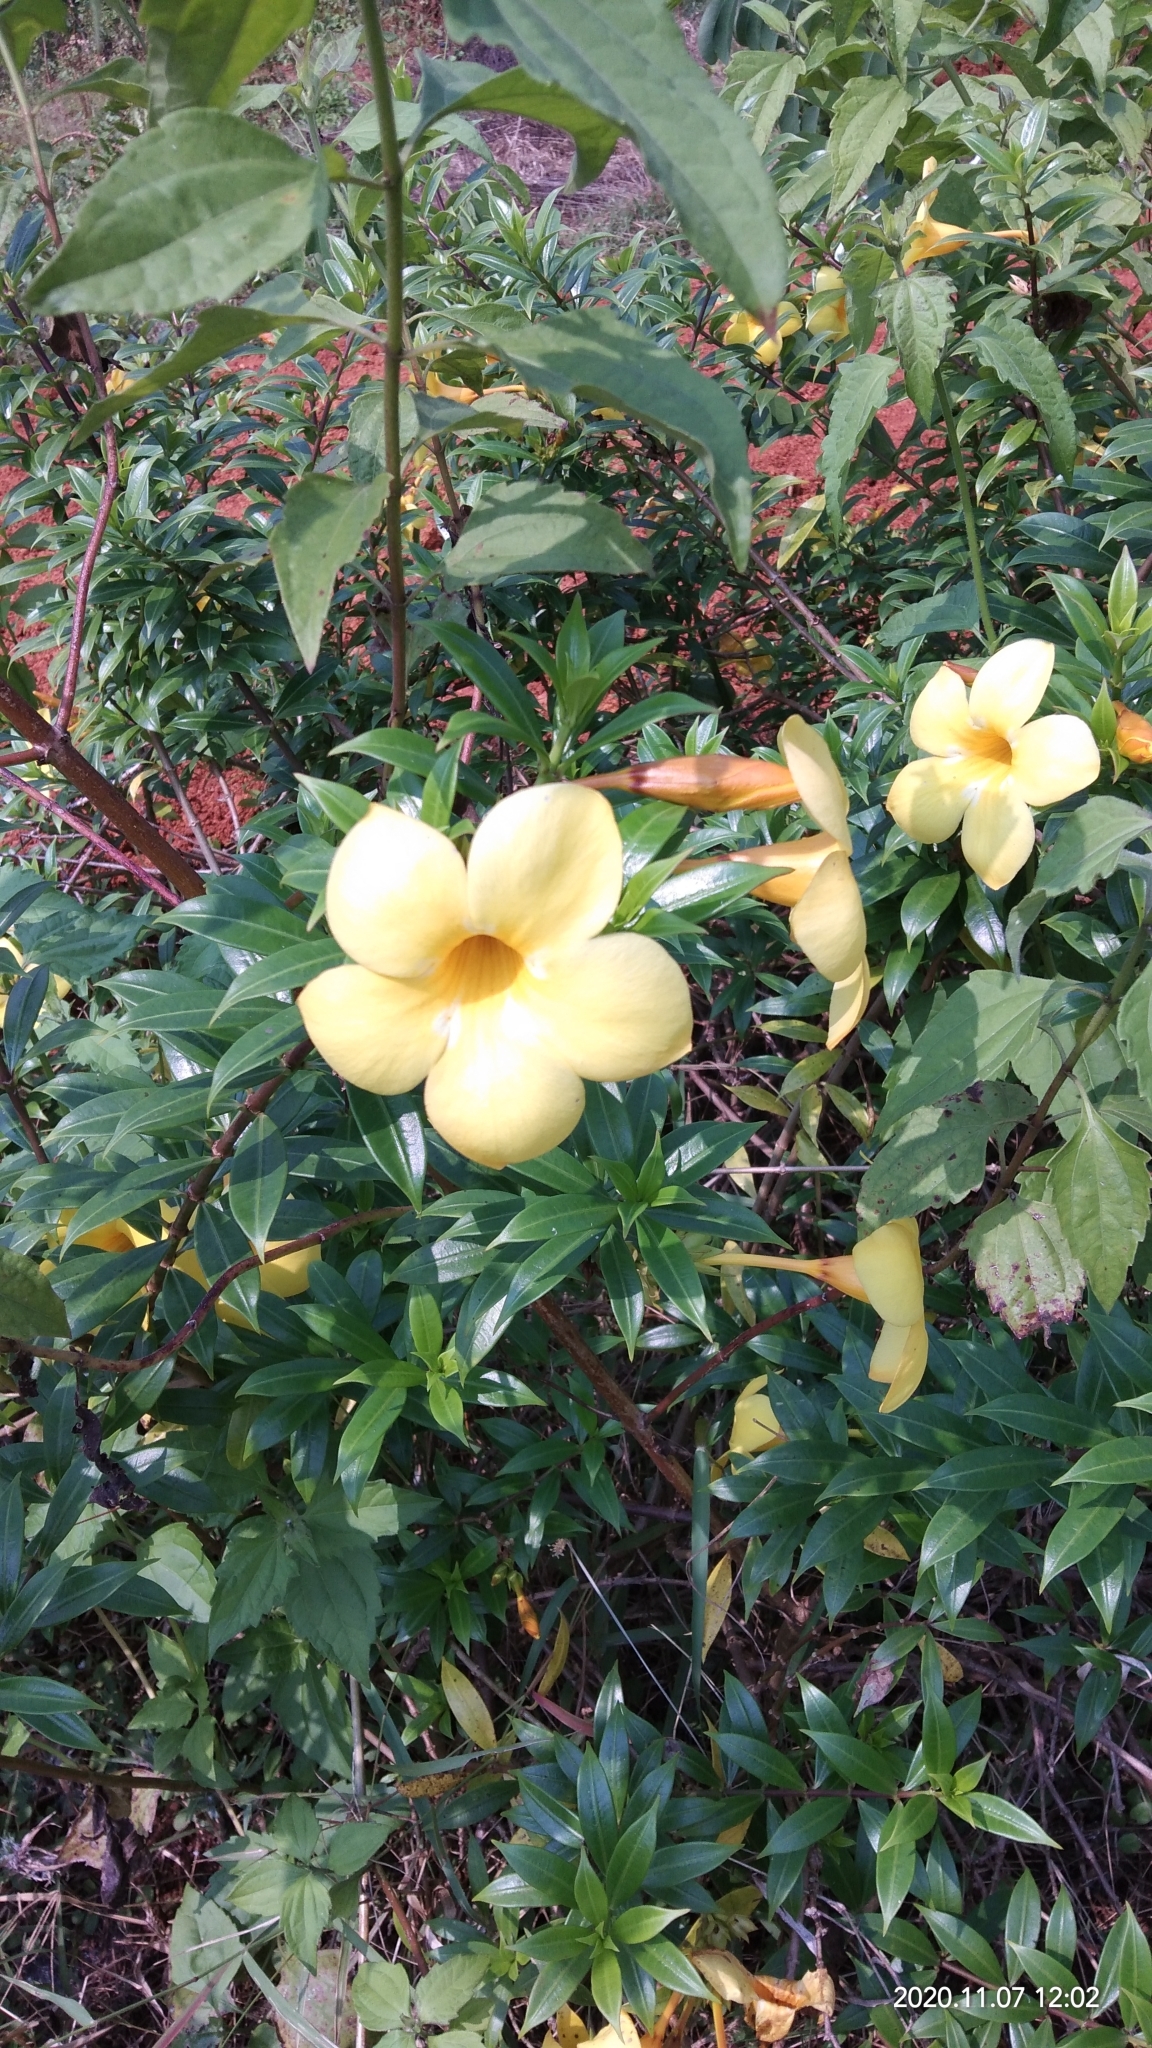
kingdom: Plantae
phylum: Tracheophyta
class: Magnoliopsida
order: Gentianales
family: Apocynaceae
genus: Allamanda
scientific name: Allamanda cathartica
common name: Golden trumpet
